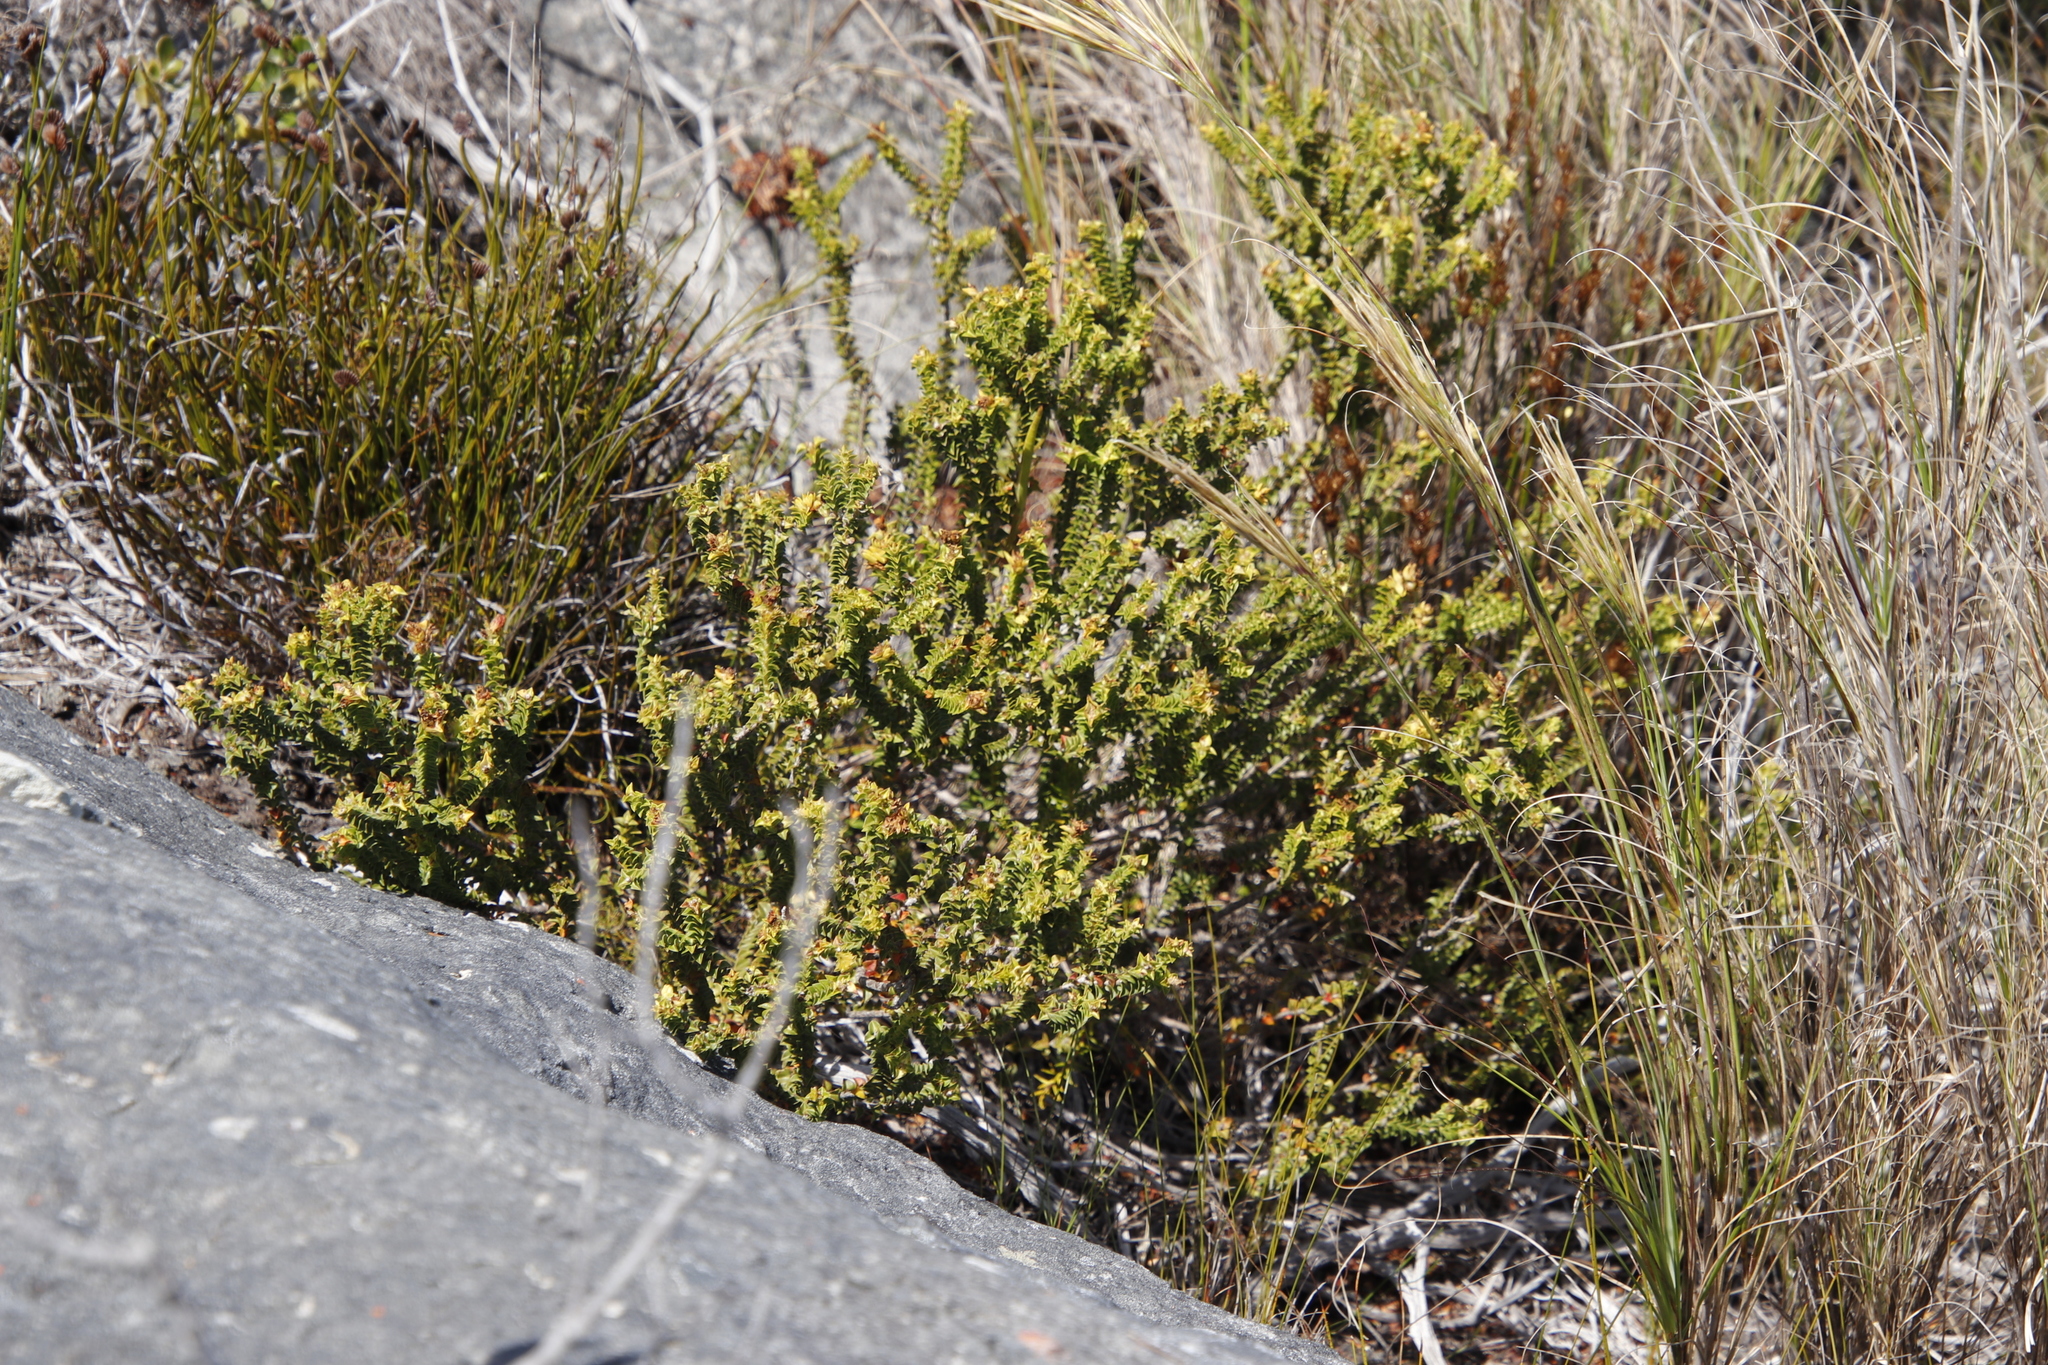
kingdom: Plantae
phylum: Tracheophyta
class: Magnoliopsida
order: Myrtales
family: Penaeaceae
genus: Penaea
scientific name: Penaea mucronata
